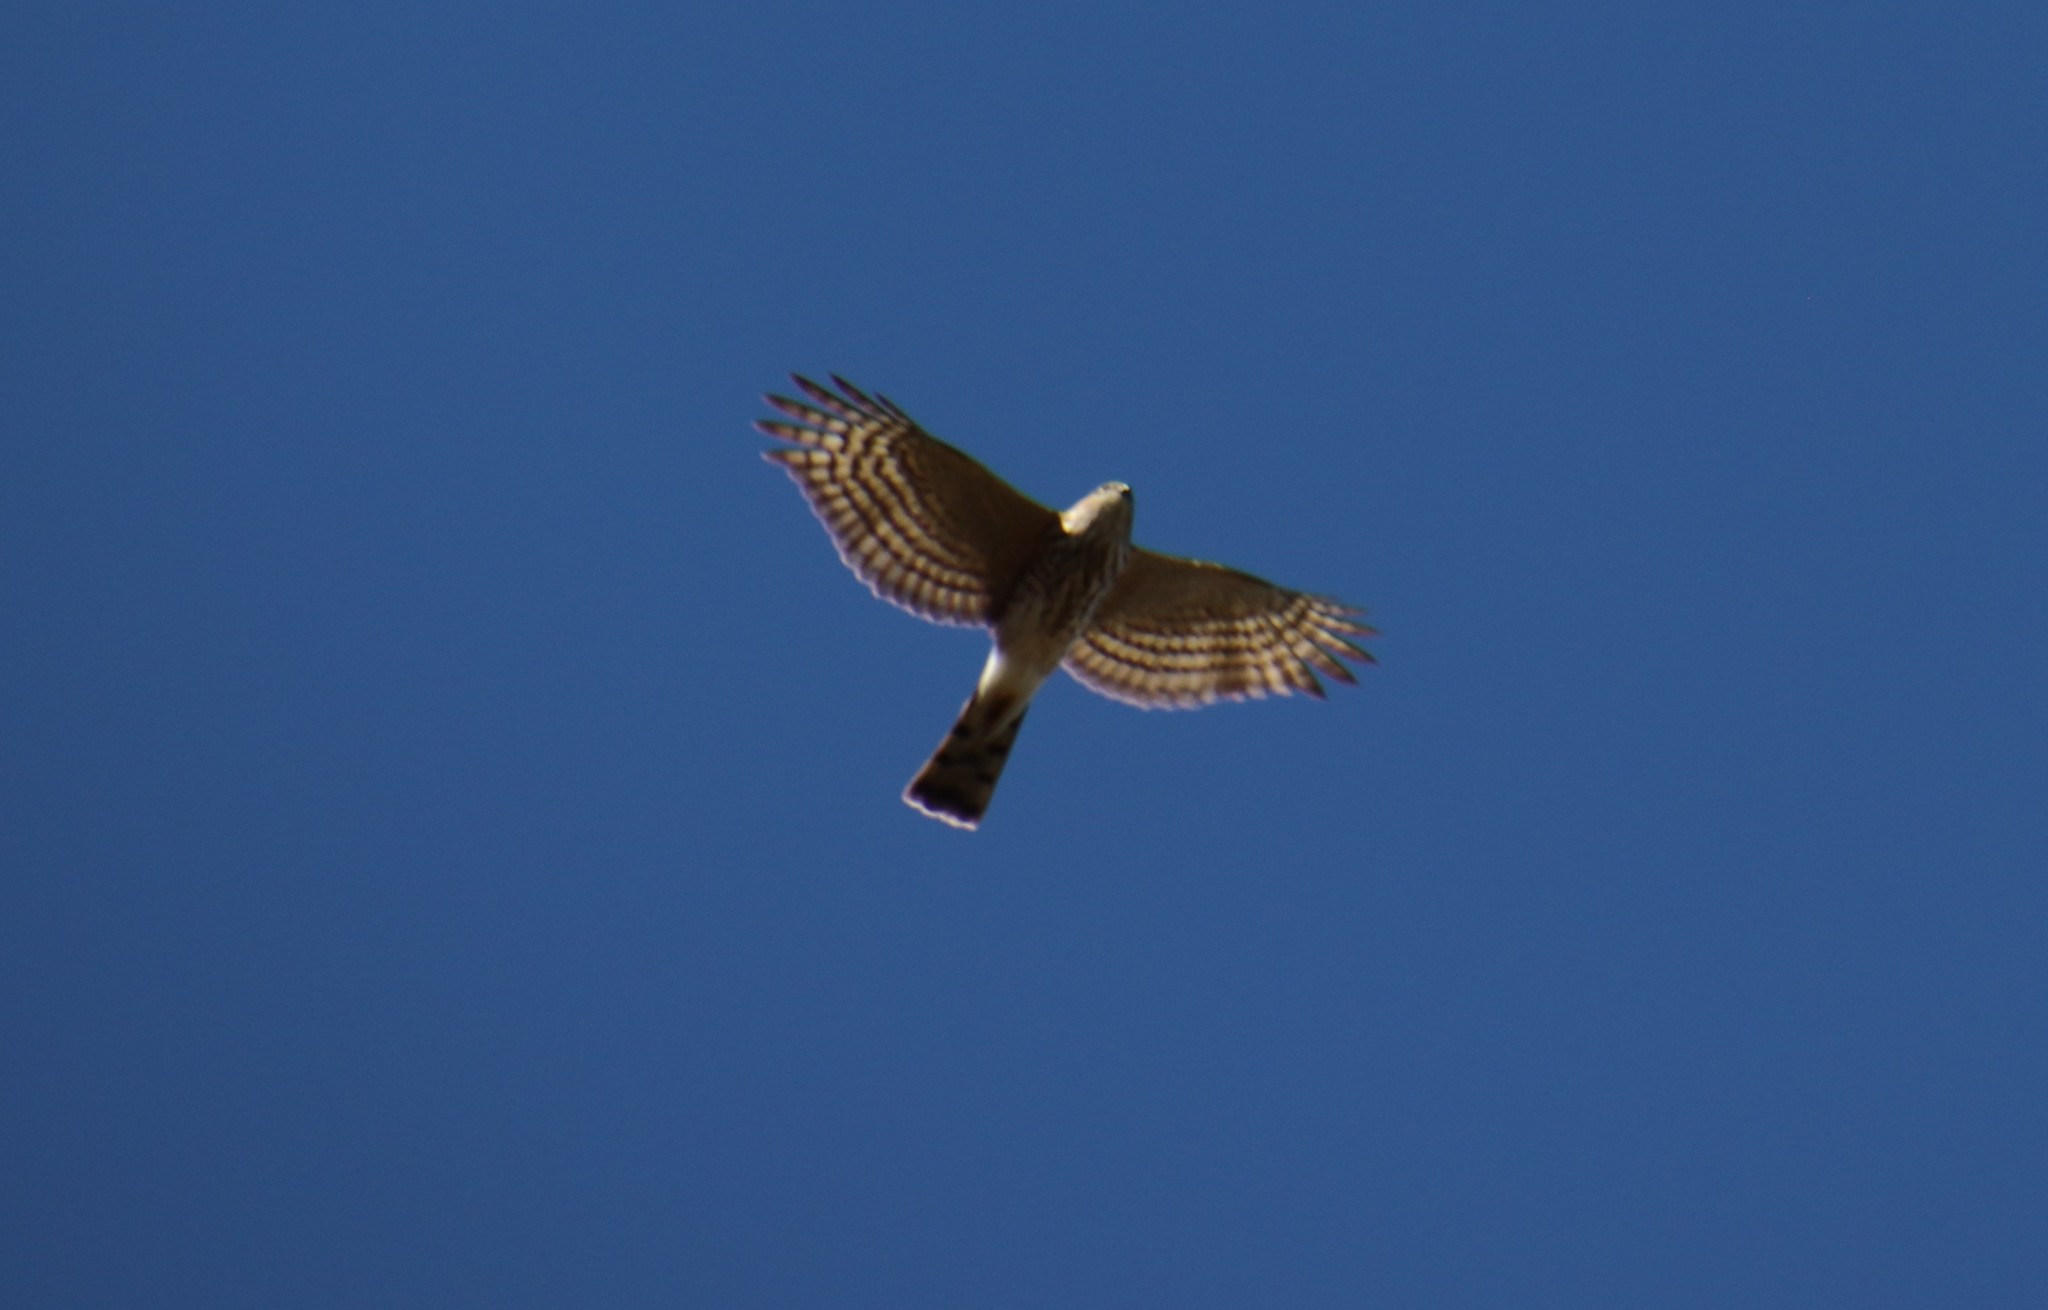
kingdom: Animalia
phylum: Chordata
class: Aves
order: Accipitriformes
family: Accipitridae
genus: Accipiter
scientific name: Accipiter striatus
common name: Sharp-shinned hawk
